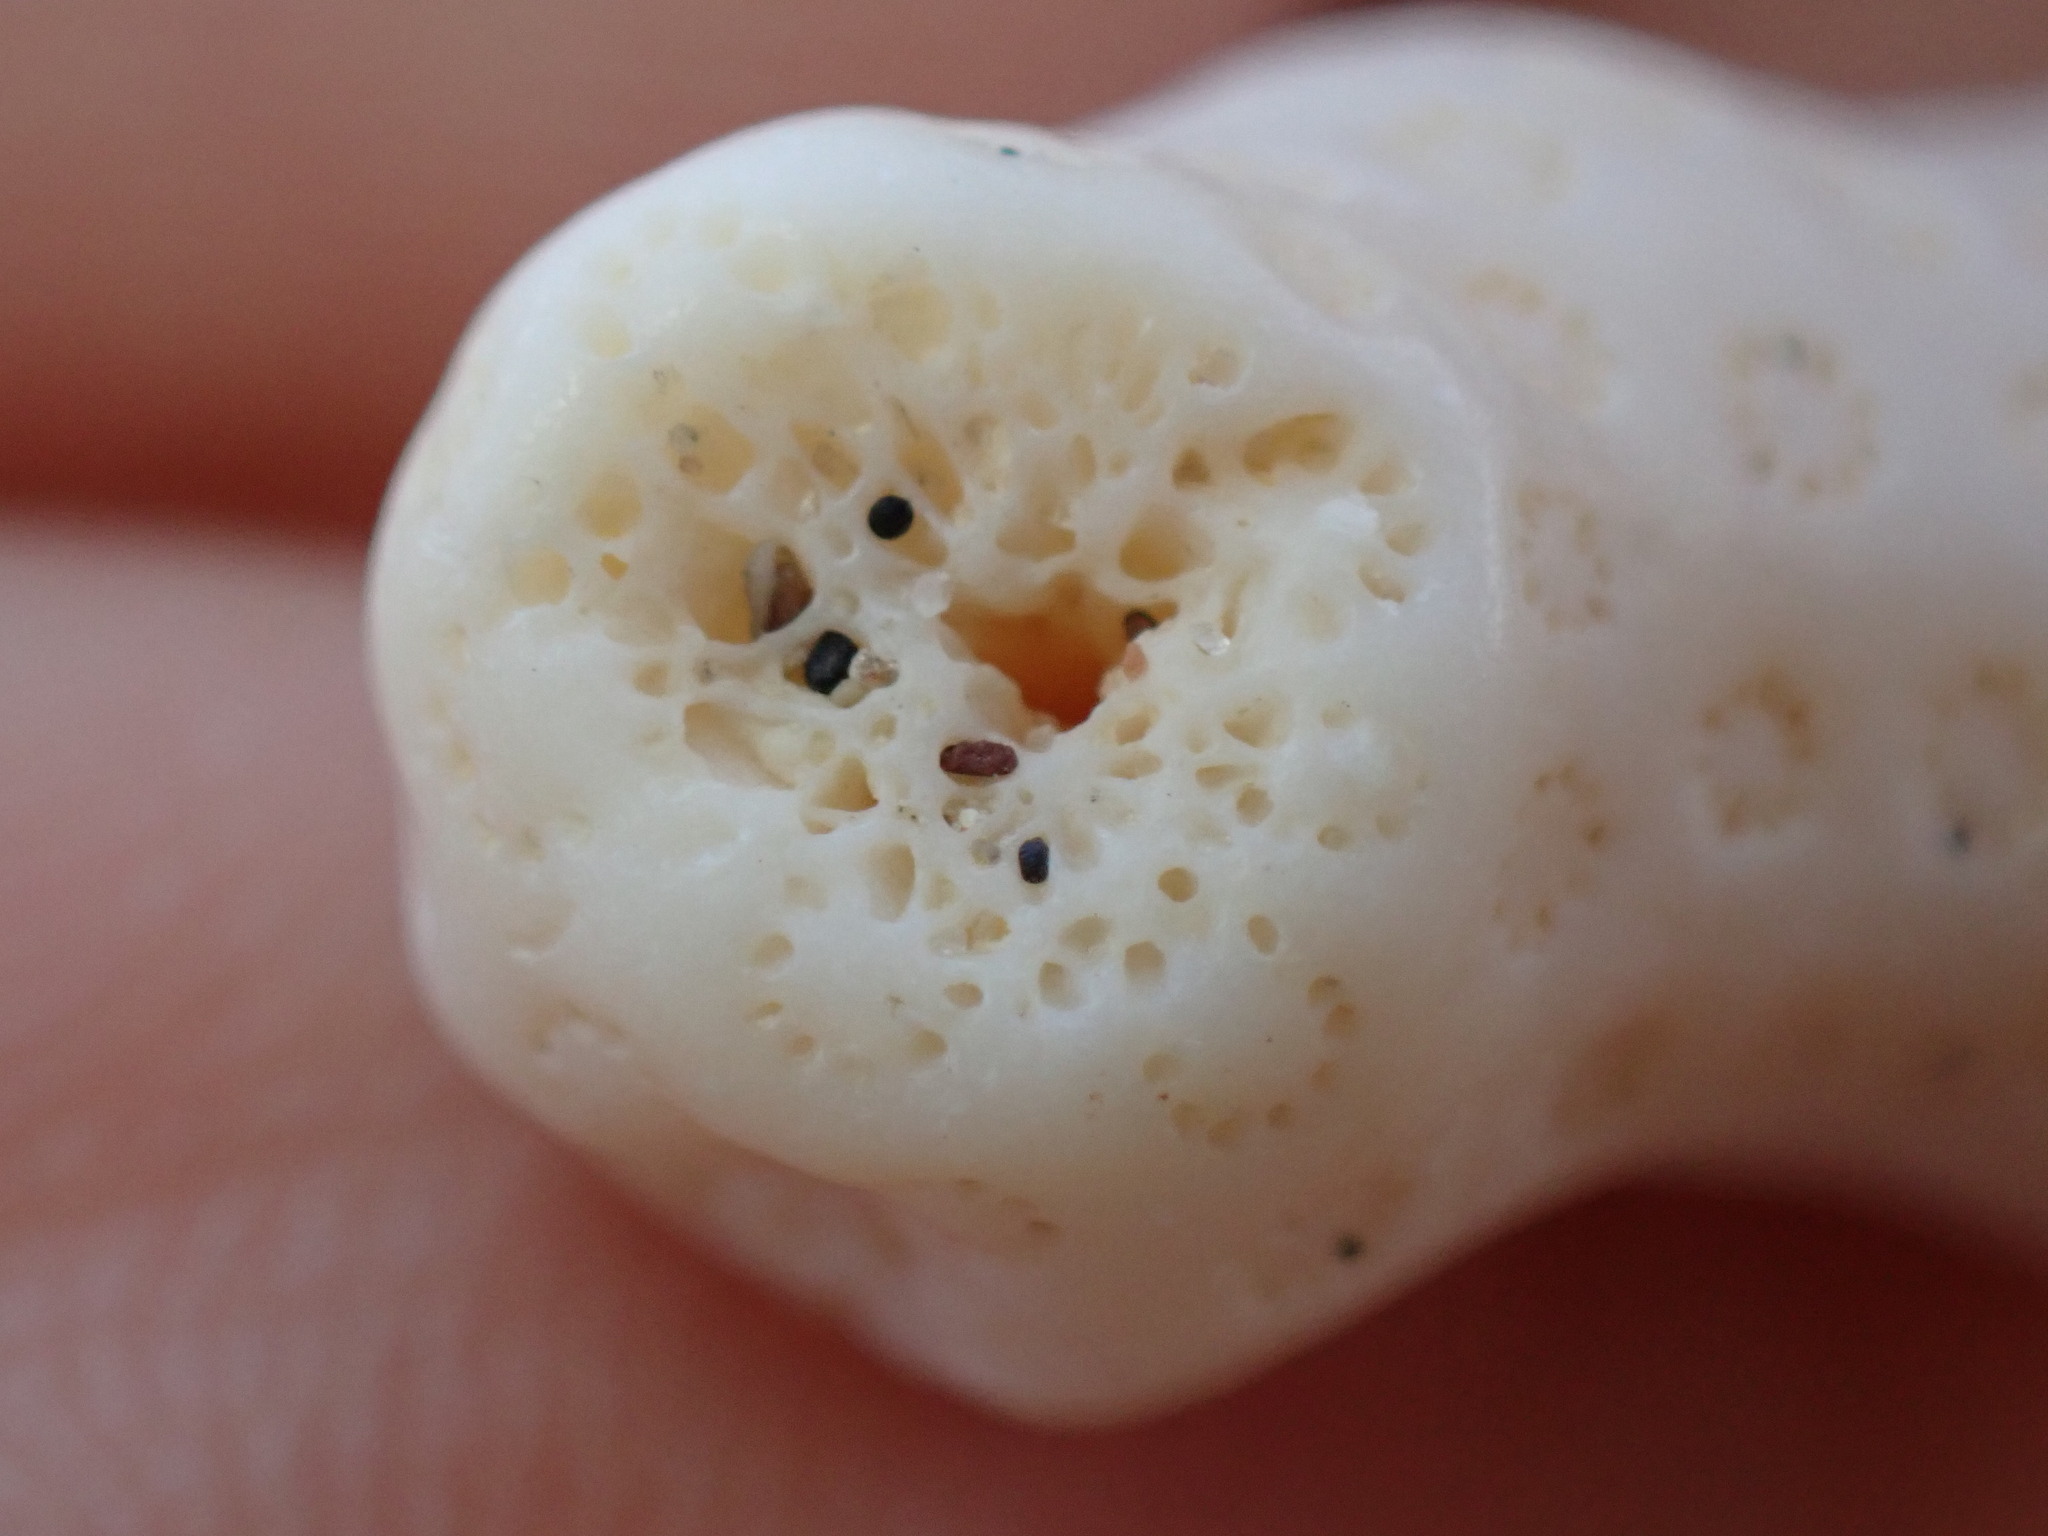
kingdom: Animalia
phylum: Cnidaria
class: Anthozoa
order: Scleractinia
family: Astrangiidae
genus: Astrangia
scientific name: Astrangia poculata
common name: Northern star coral
